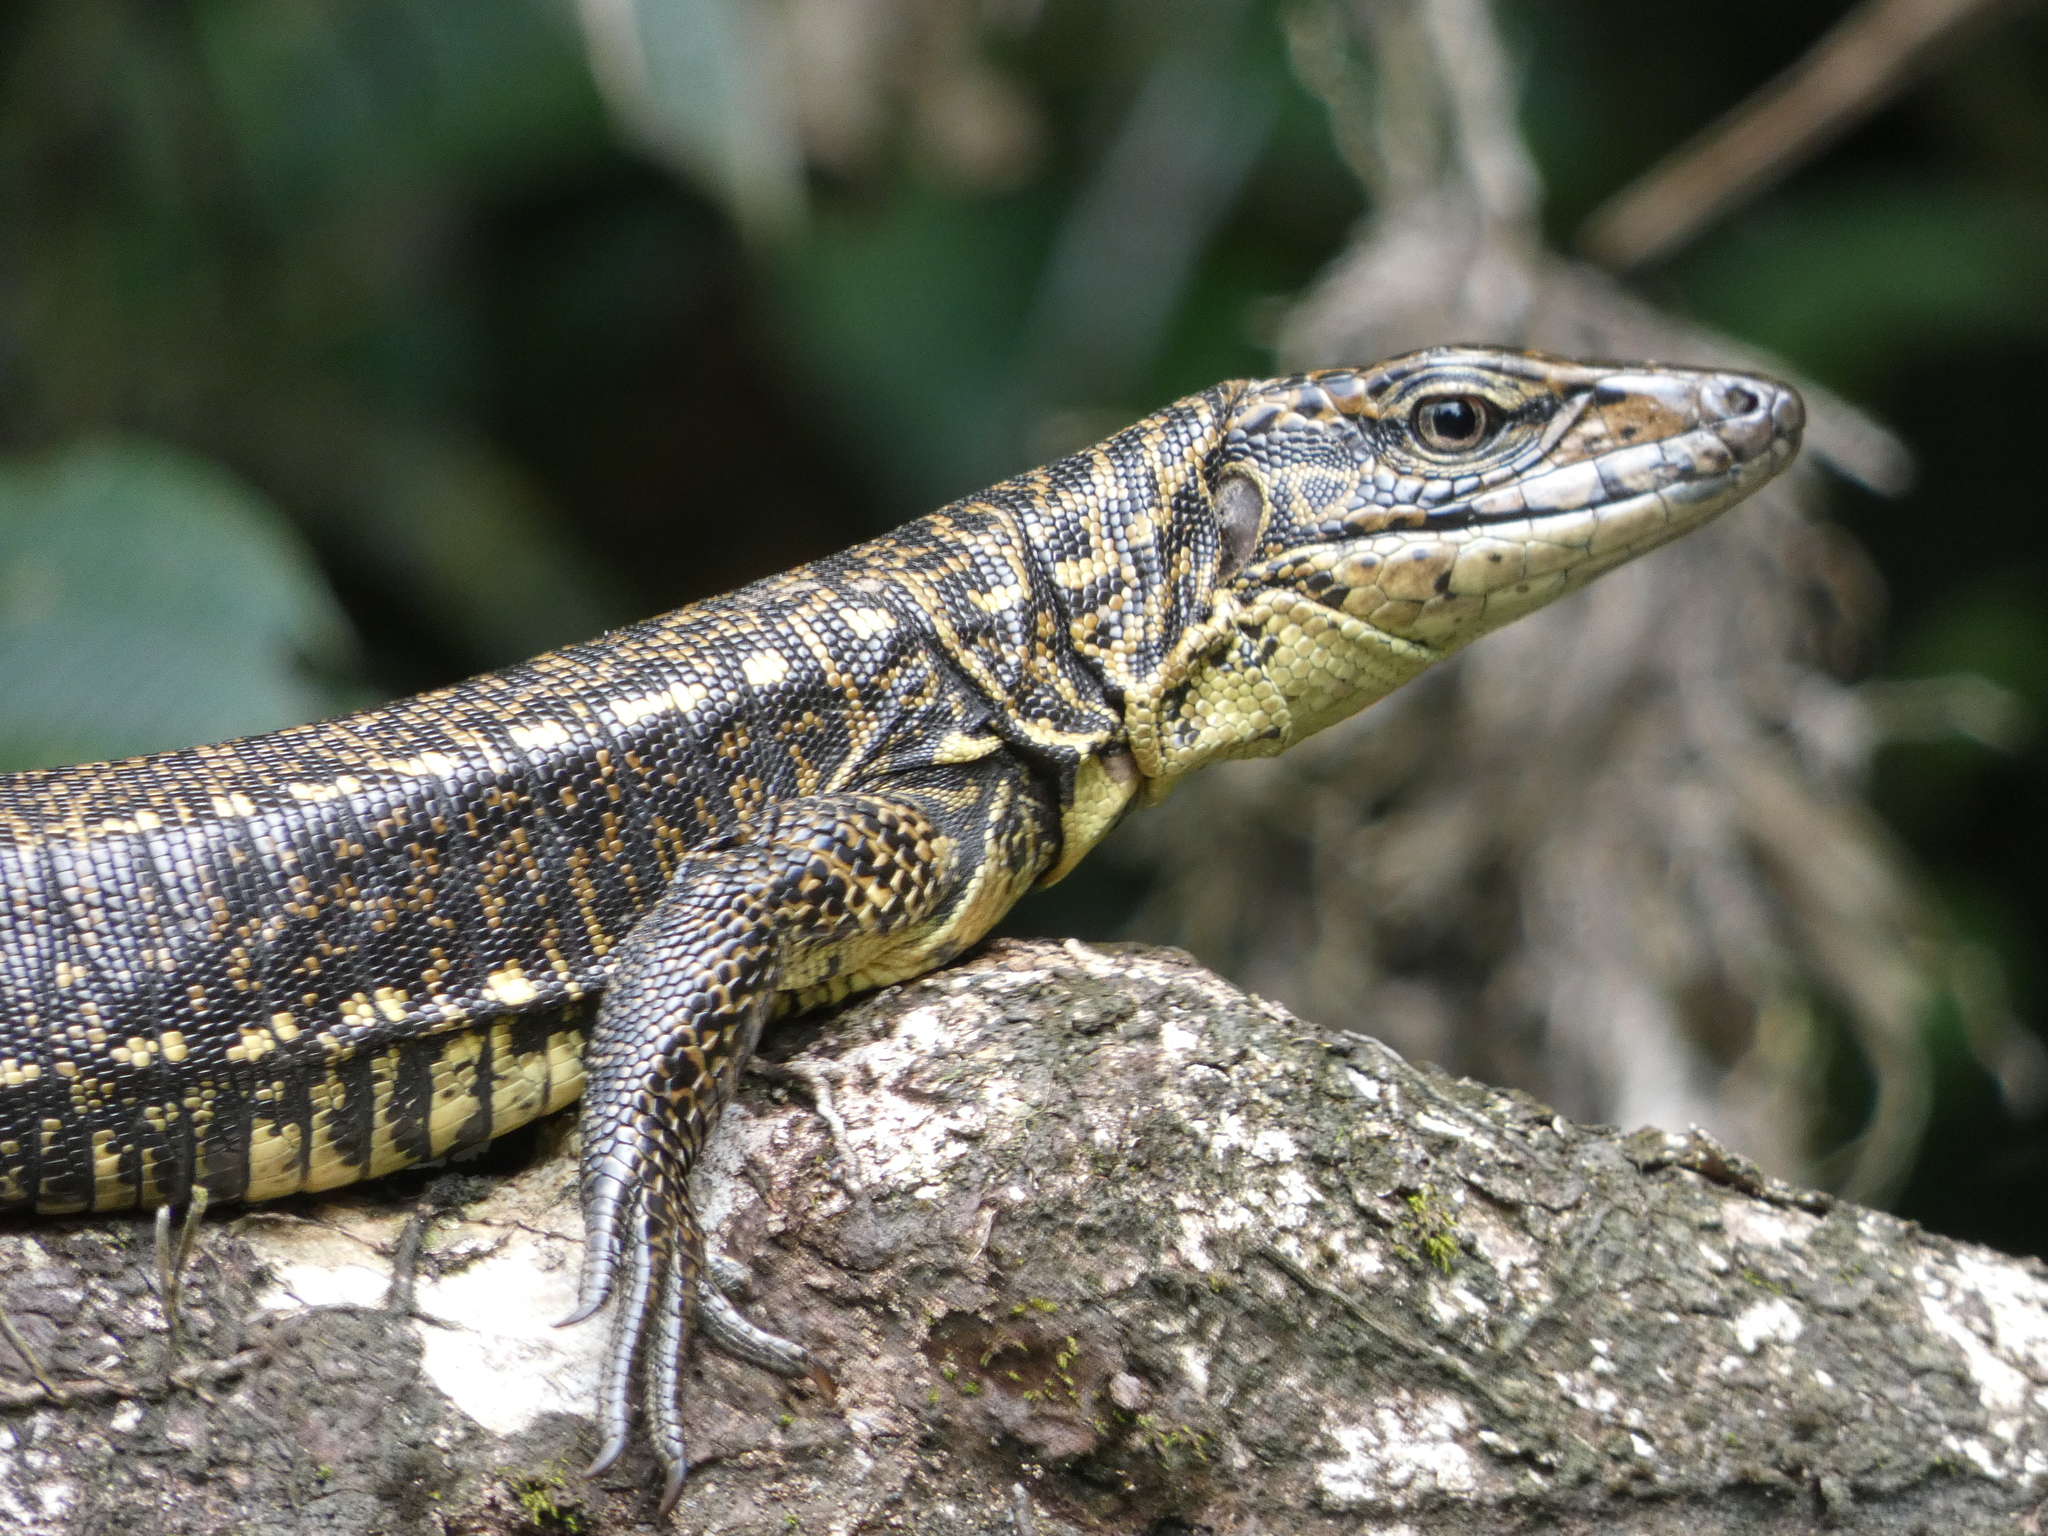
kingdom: Animalia
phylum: Chordata
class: Squamata
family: Teiidae
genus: Tupinambis
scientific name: Tupinambis cuzcoensis
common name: Cusco tegu lizard
